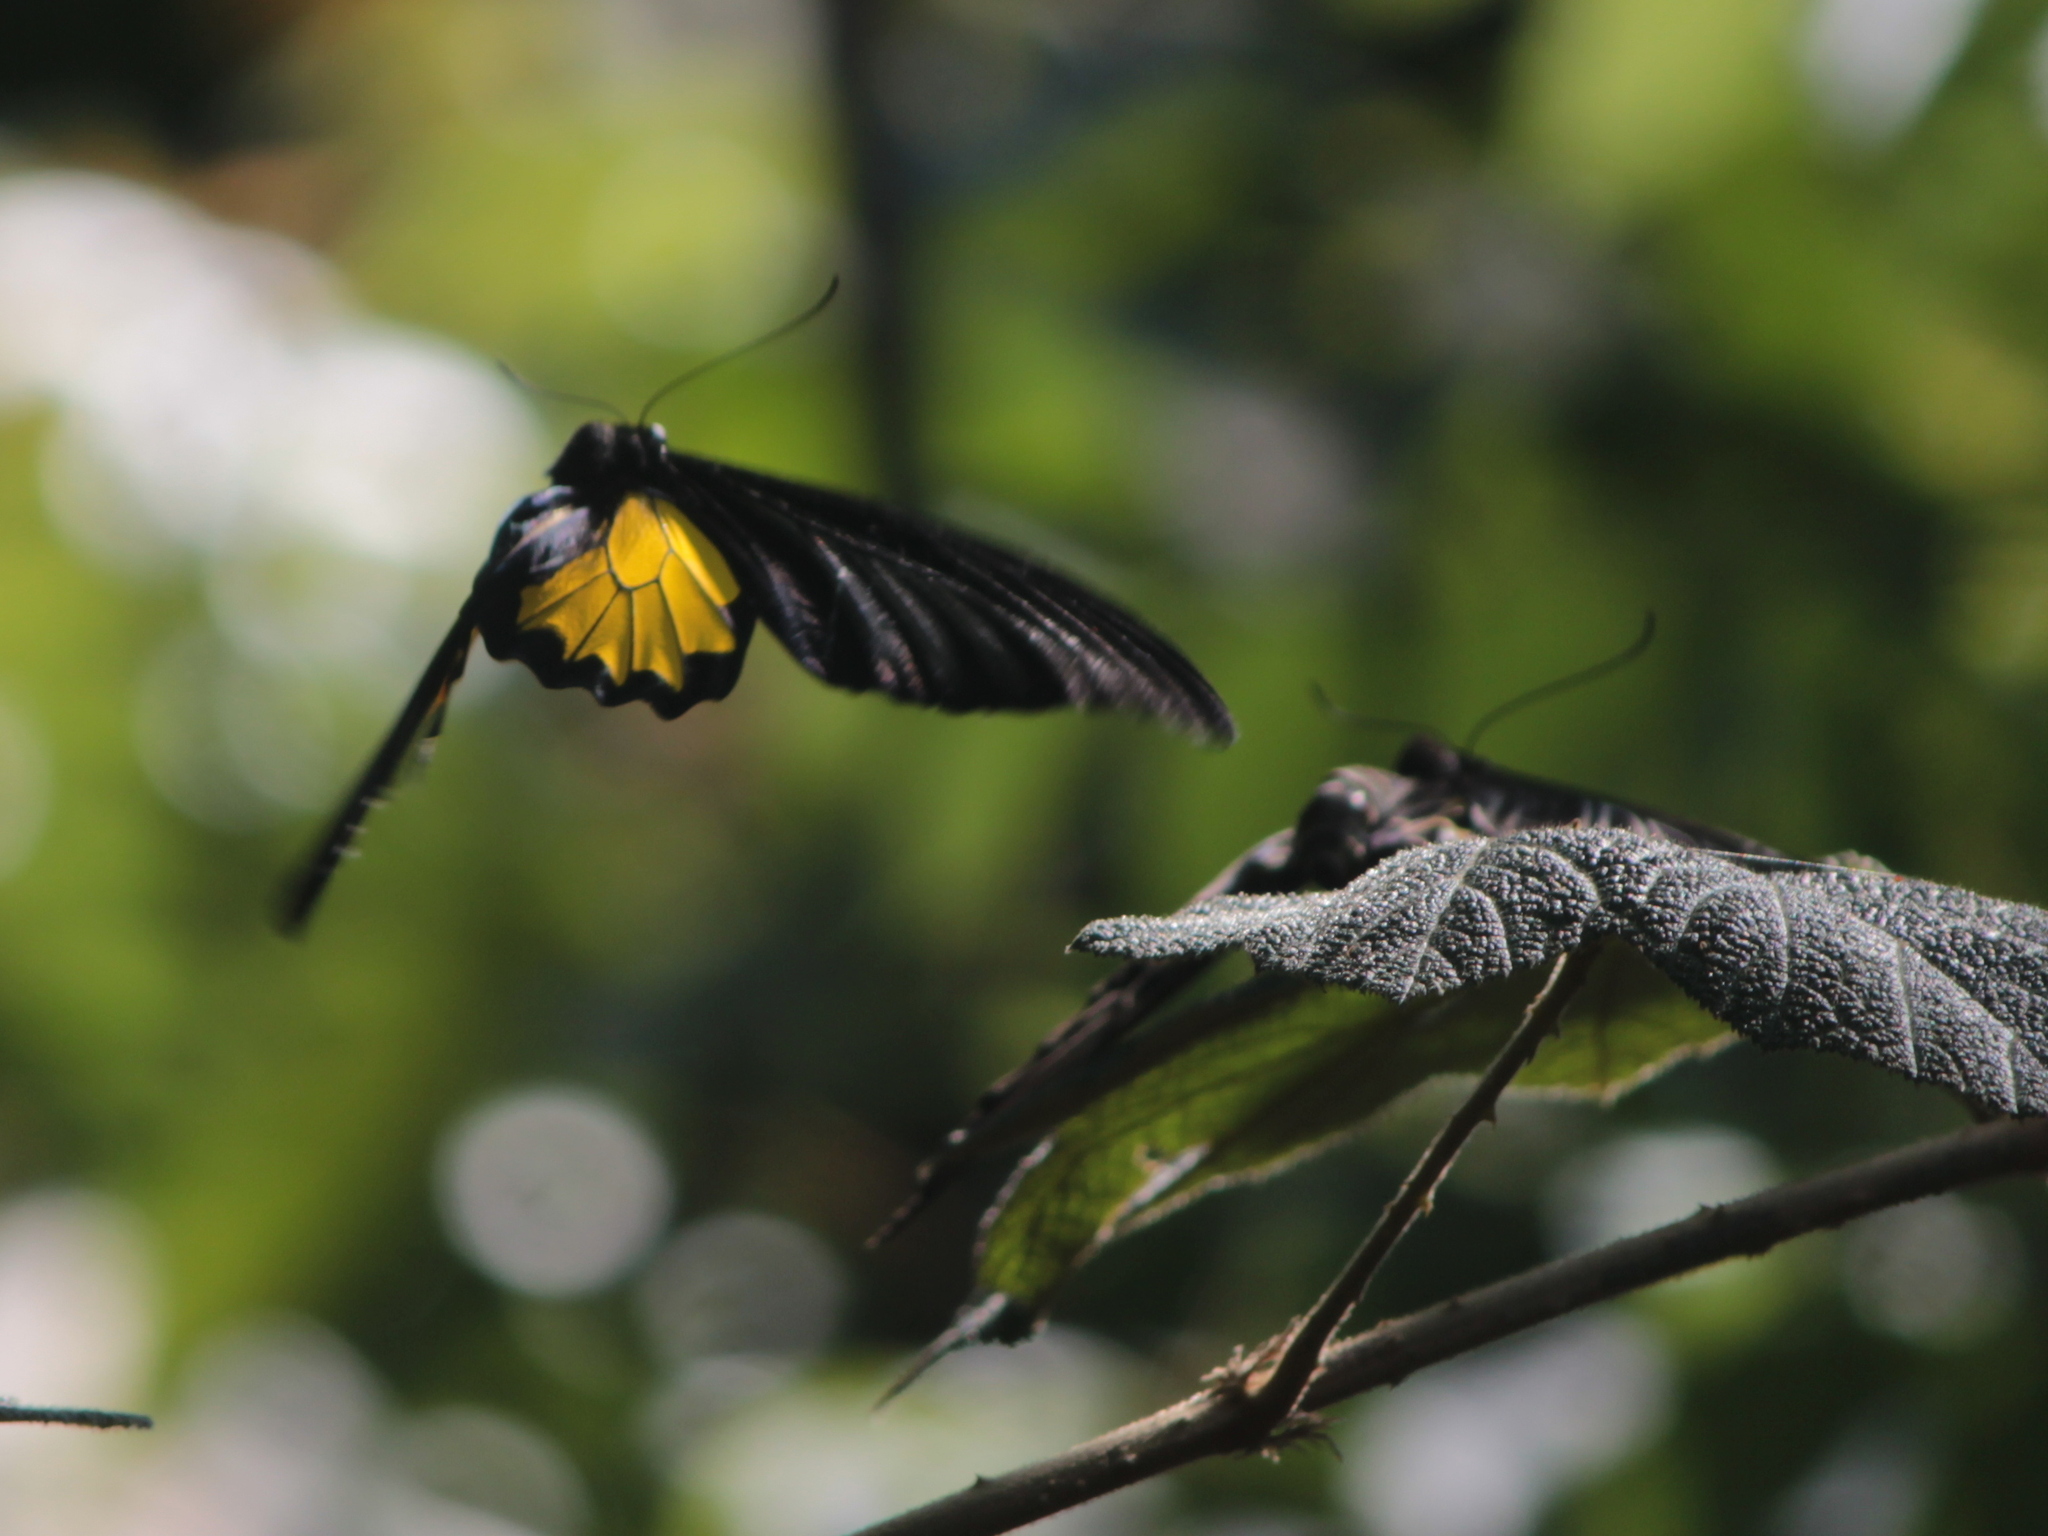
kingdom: Animalia
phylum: Arthropoda
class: Insecta
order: Lepidoptera
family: Papilionidae
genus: Troides
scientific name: Troides minos
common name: Malabar birdwing
